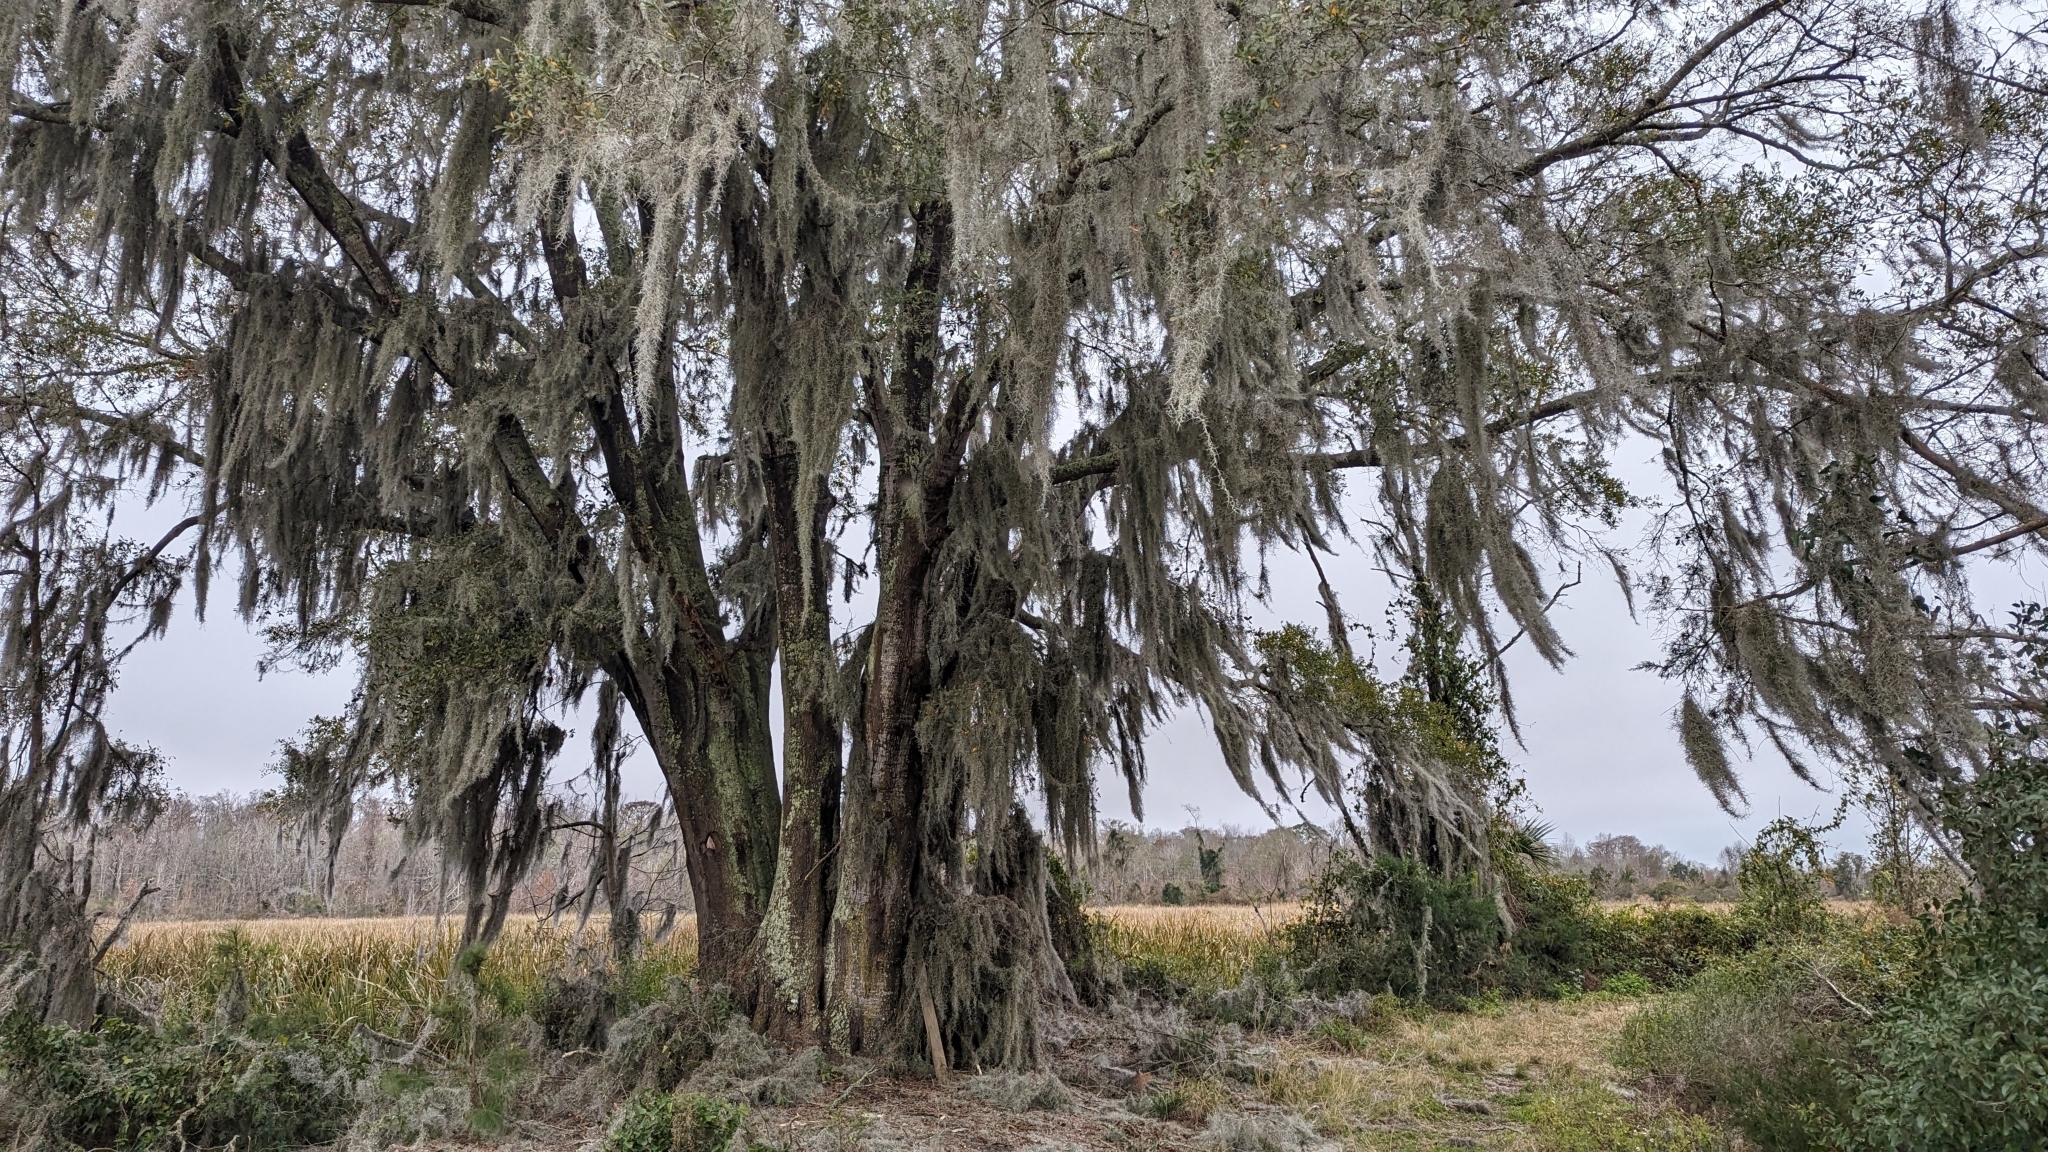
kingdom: Plantae
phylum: Tracheophyta
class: Liliopsida
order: Poales
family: Bromeliaceae
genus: Tillandsia
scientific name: Tillandsia usneoides
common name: Spanish moss
